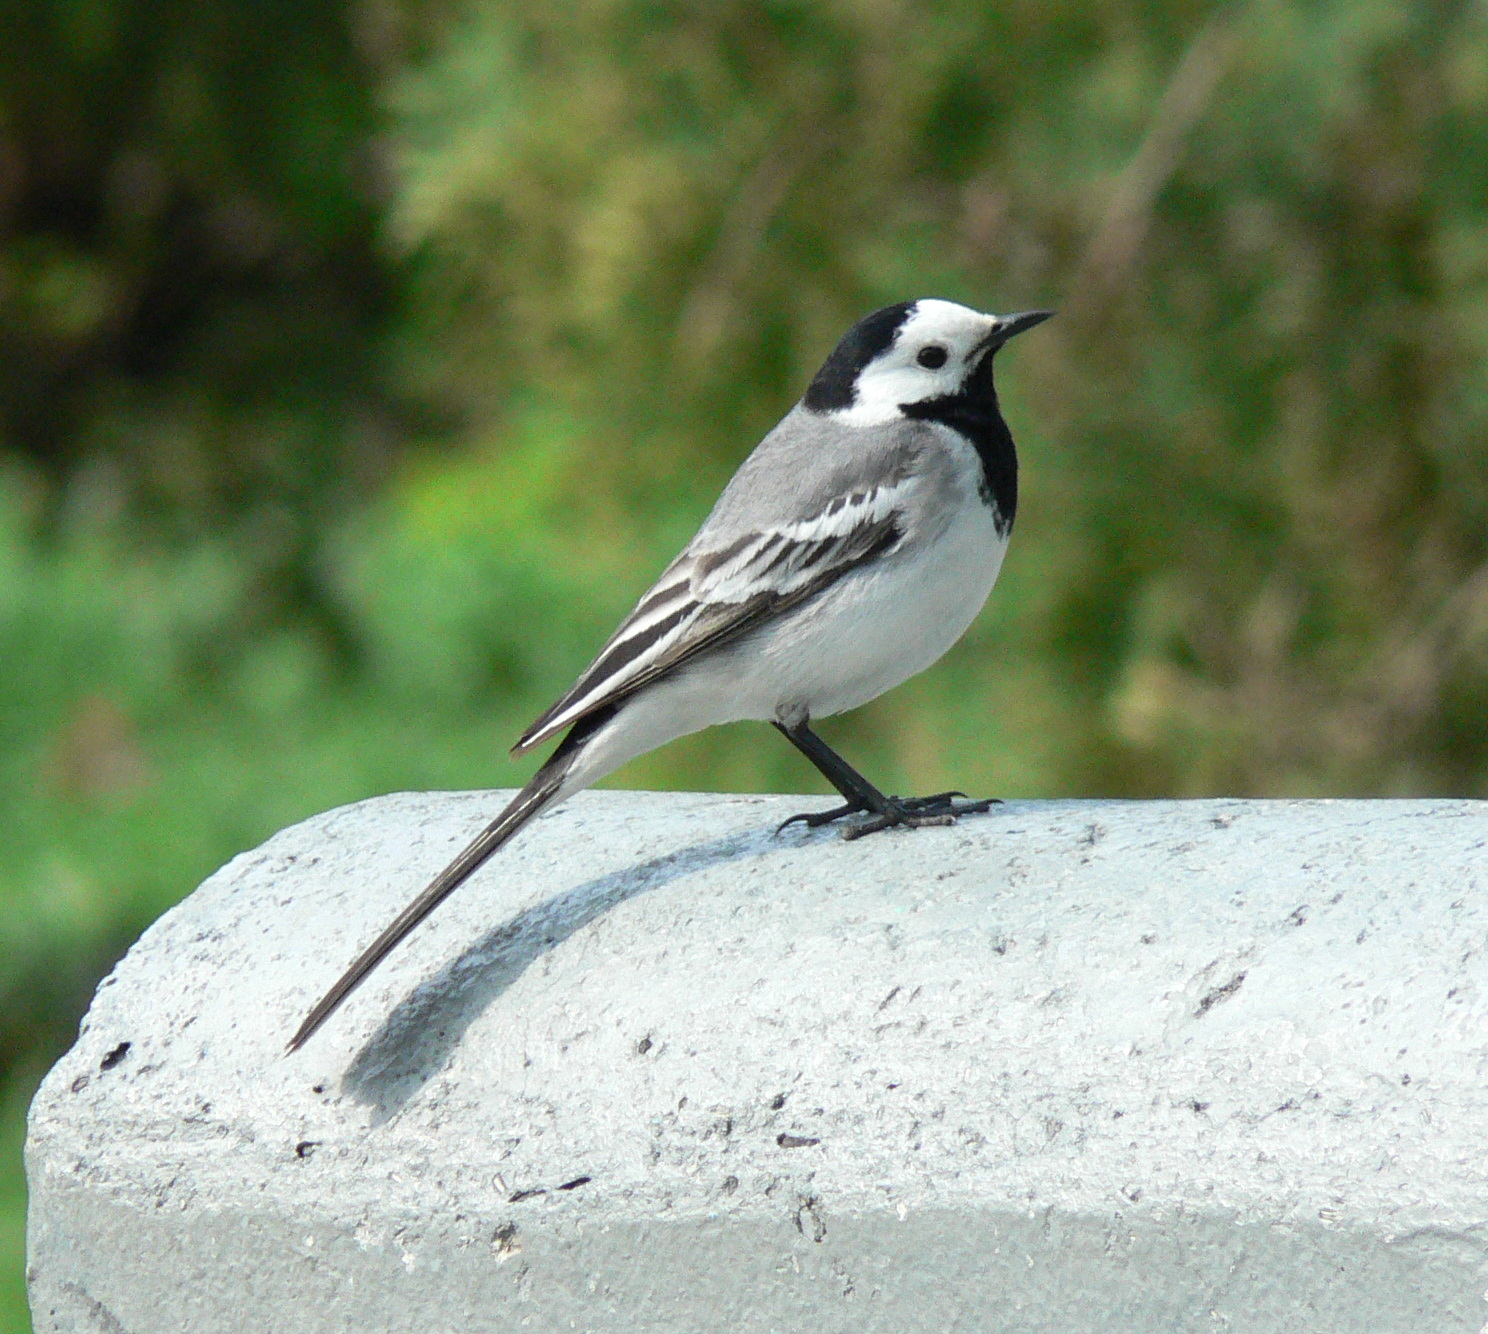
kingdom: Animalia
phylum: Chordata
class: Aves
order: Passeriformes
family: Motacillidae
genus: Motacilla
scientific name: Motacilla alba
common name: White wagtail
